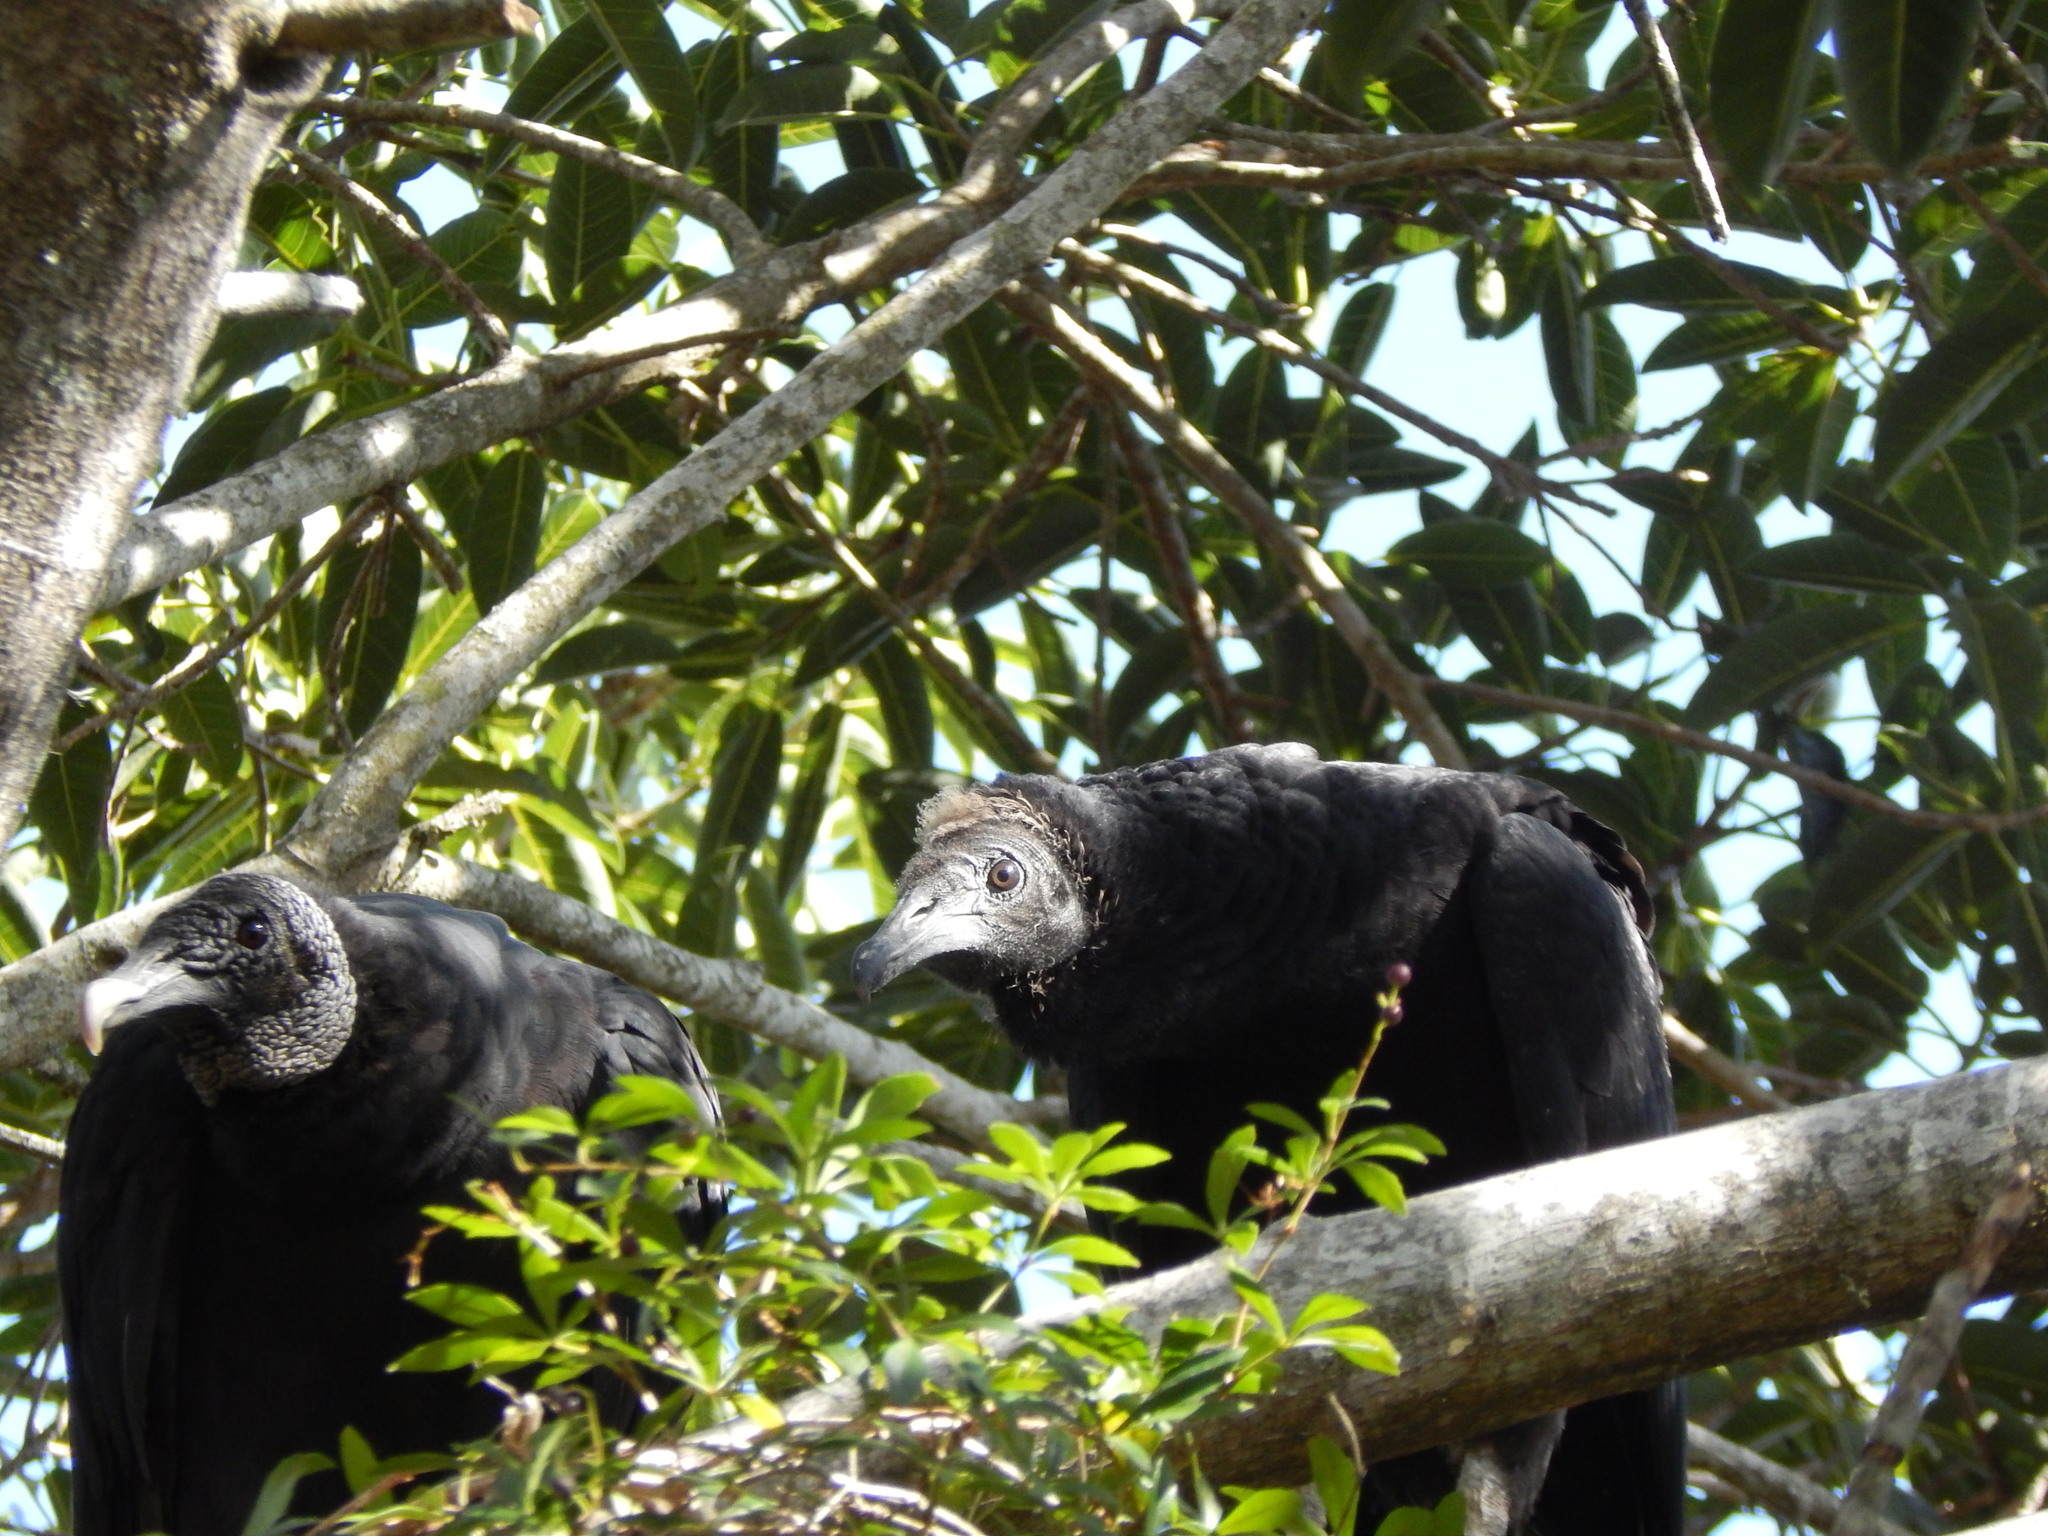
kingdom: Animalia
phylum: Chordata
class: Aves
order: Accipitriformes
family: Cathartidae
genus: Coragyps
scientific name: Coragyps atratus
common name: Black vulture
